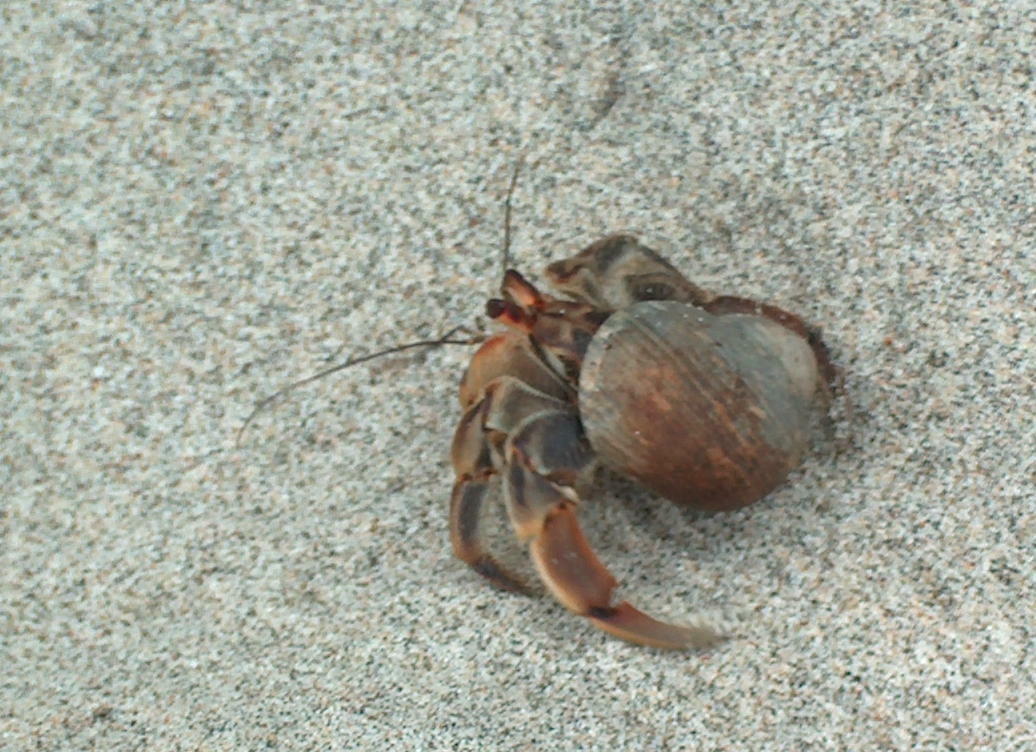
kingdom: Animalia
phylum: Arthropoda
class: Malacostraca
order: Decapoda
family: Coenobitidae
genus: Coenobita
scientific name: Coenobita compressus
